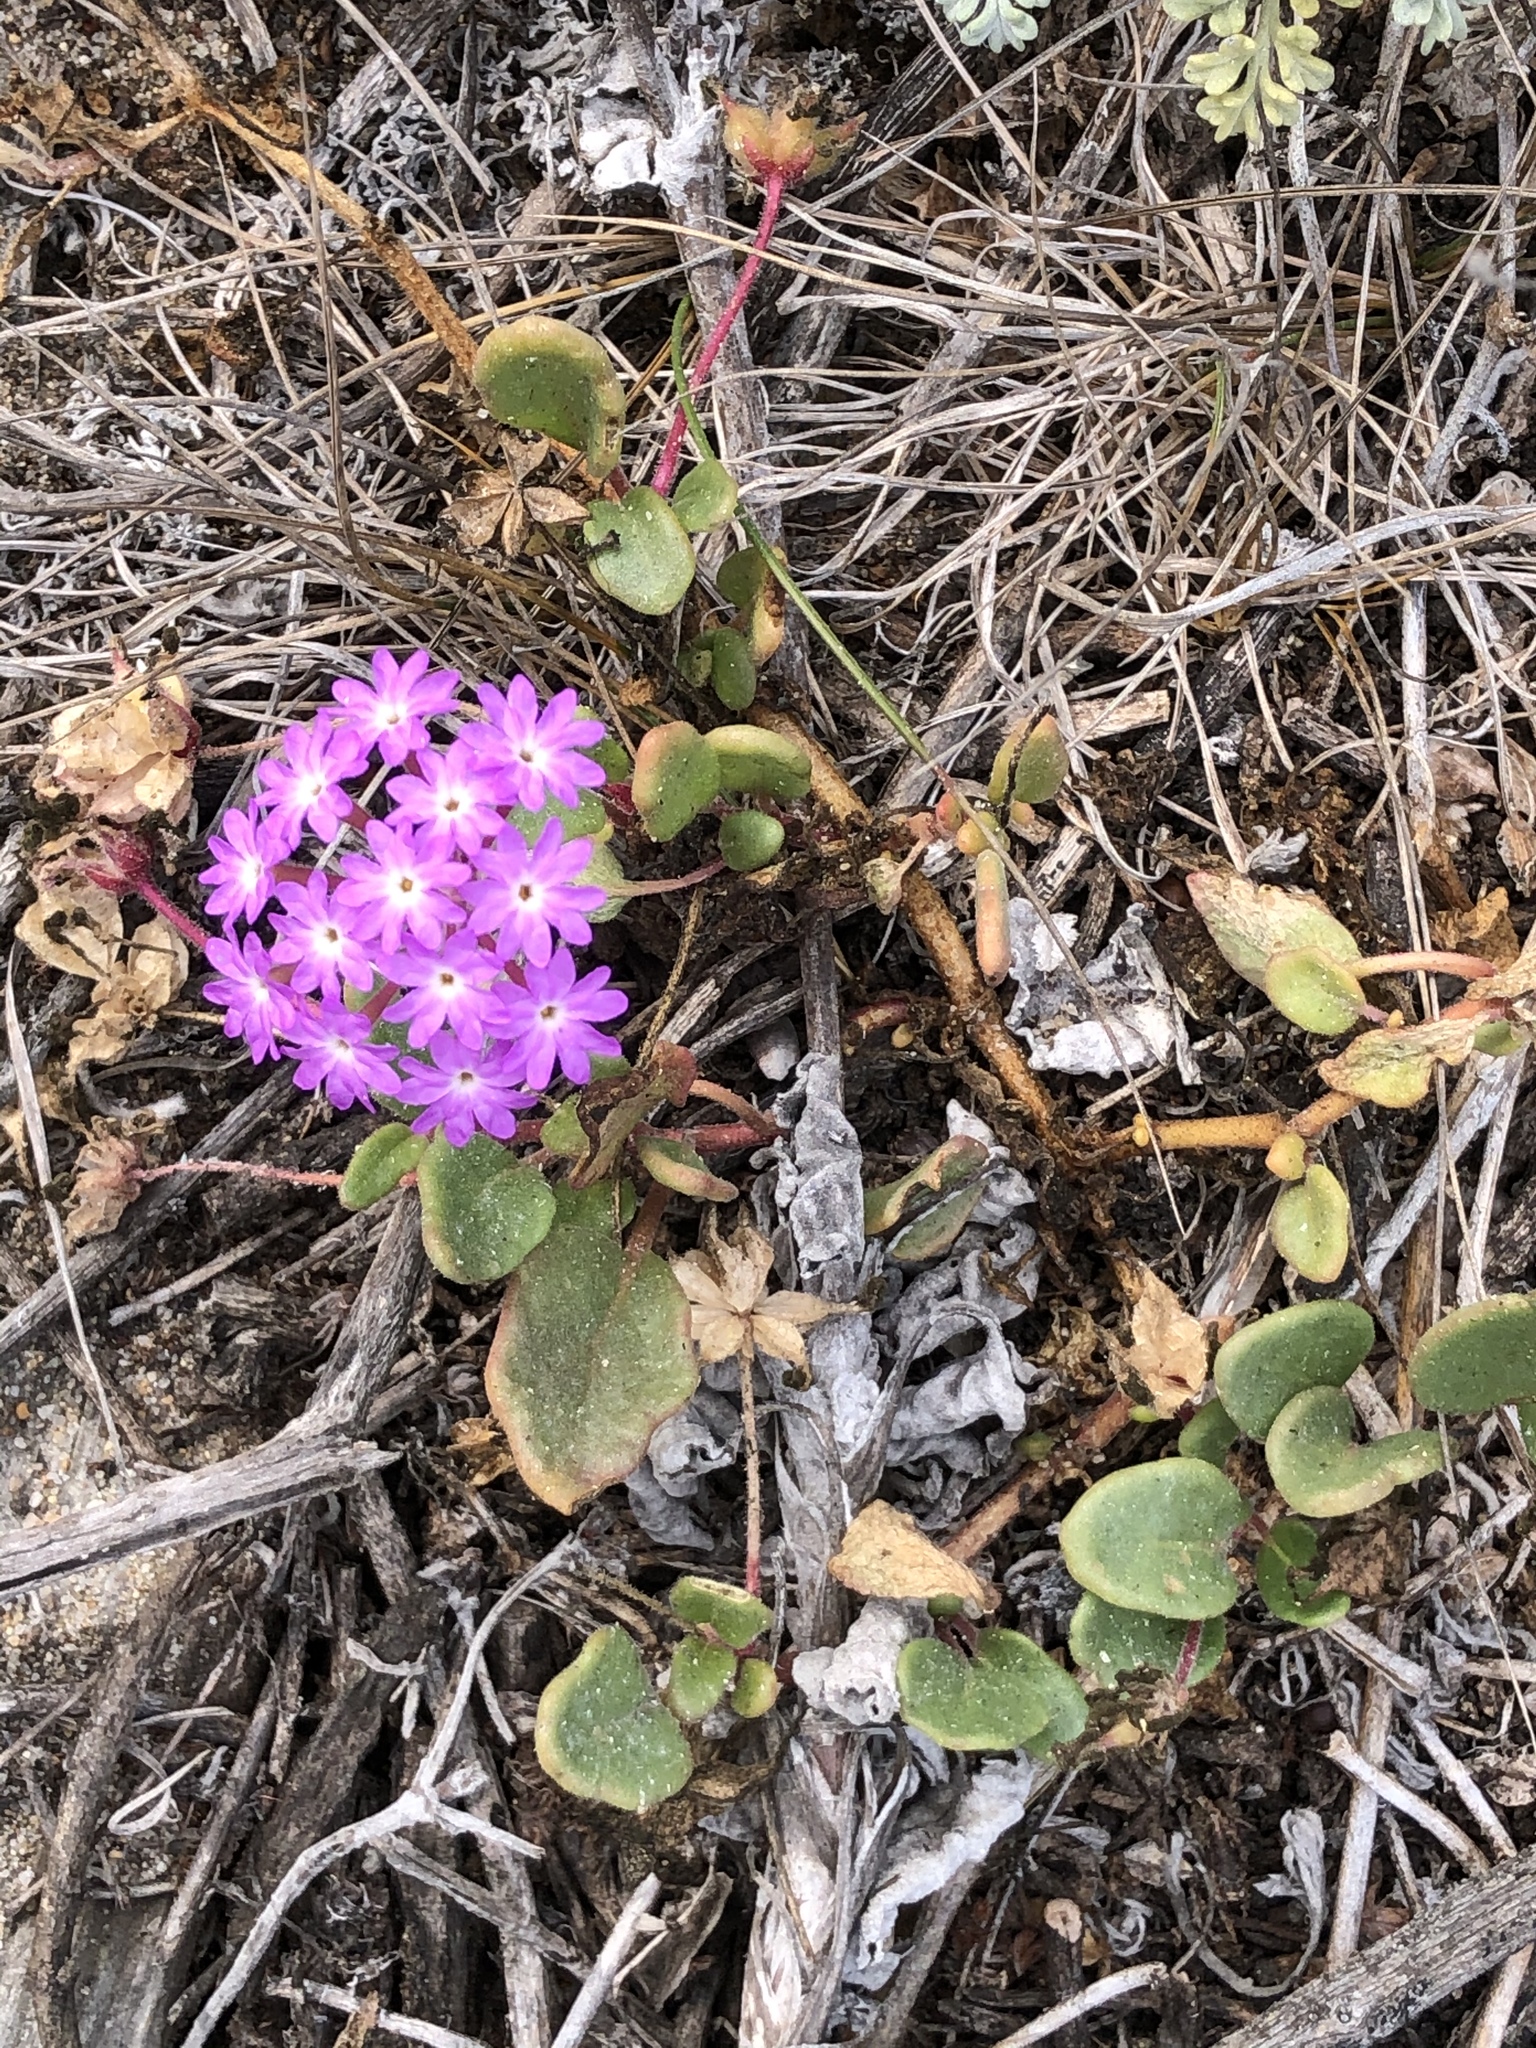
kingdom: Plantae
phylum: Tracheophyta
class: Magnoliopsida
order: Caryophyllales
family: Nyctaginaceae
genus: Abronia
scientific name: Abronia umbellata
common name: Sand-verbena
